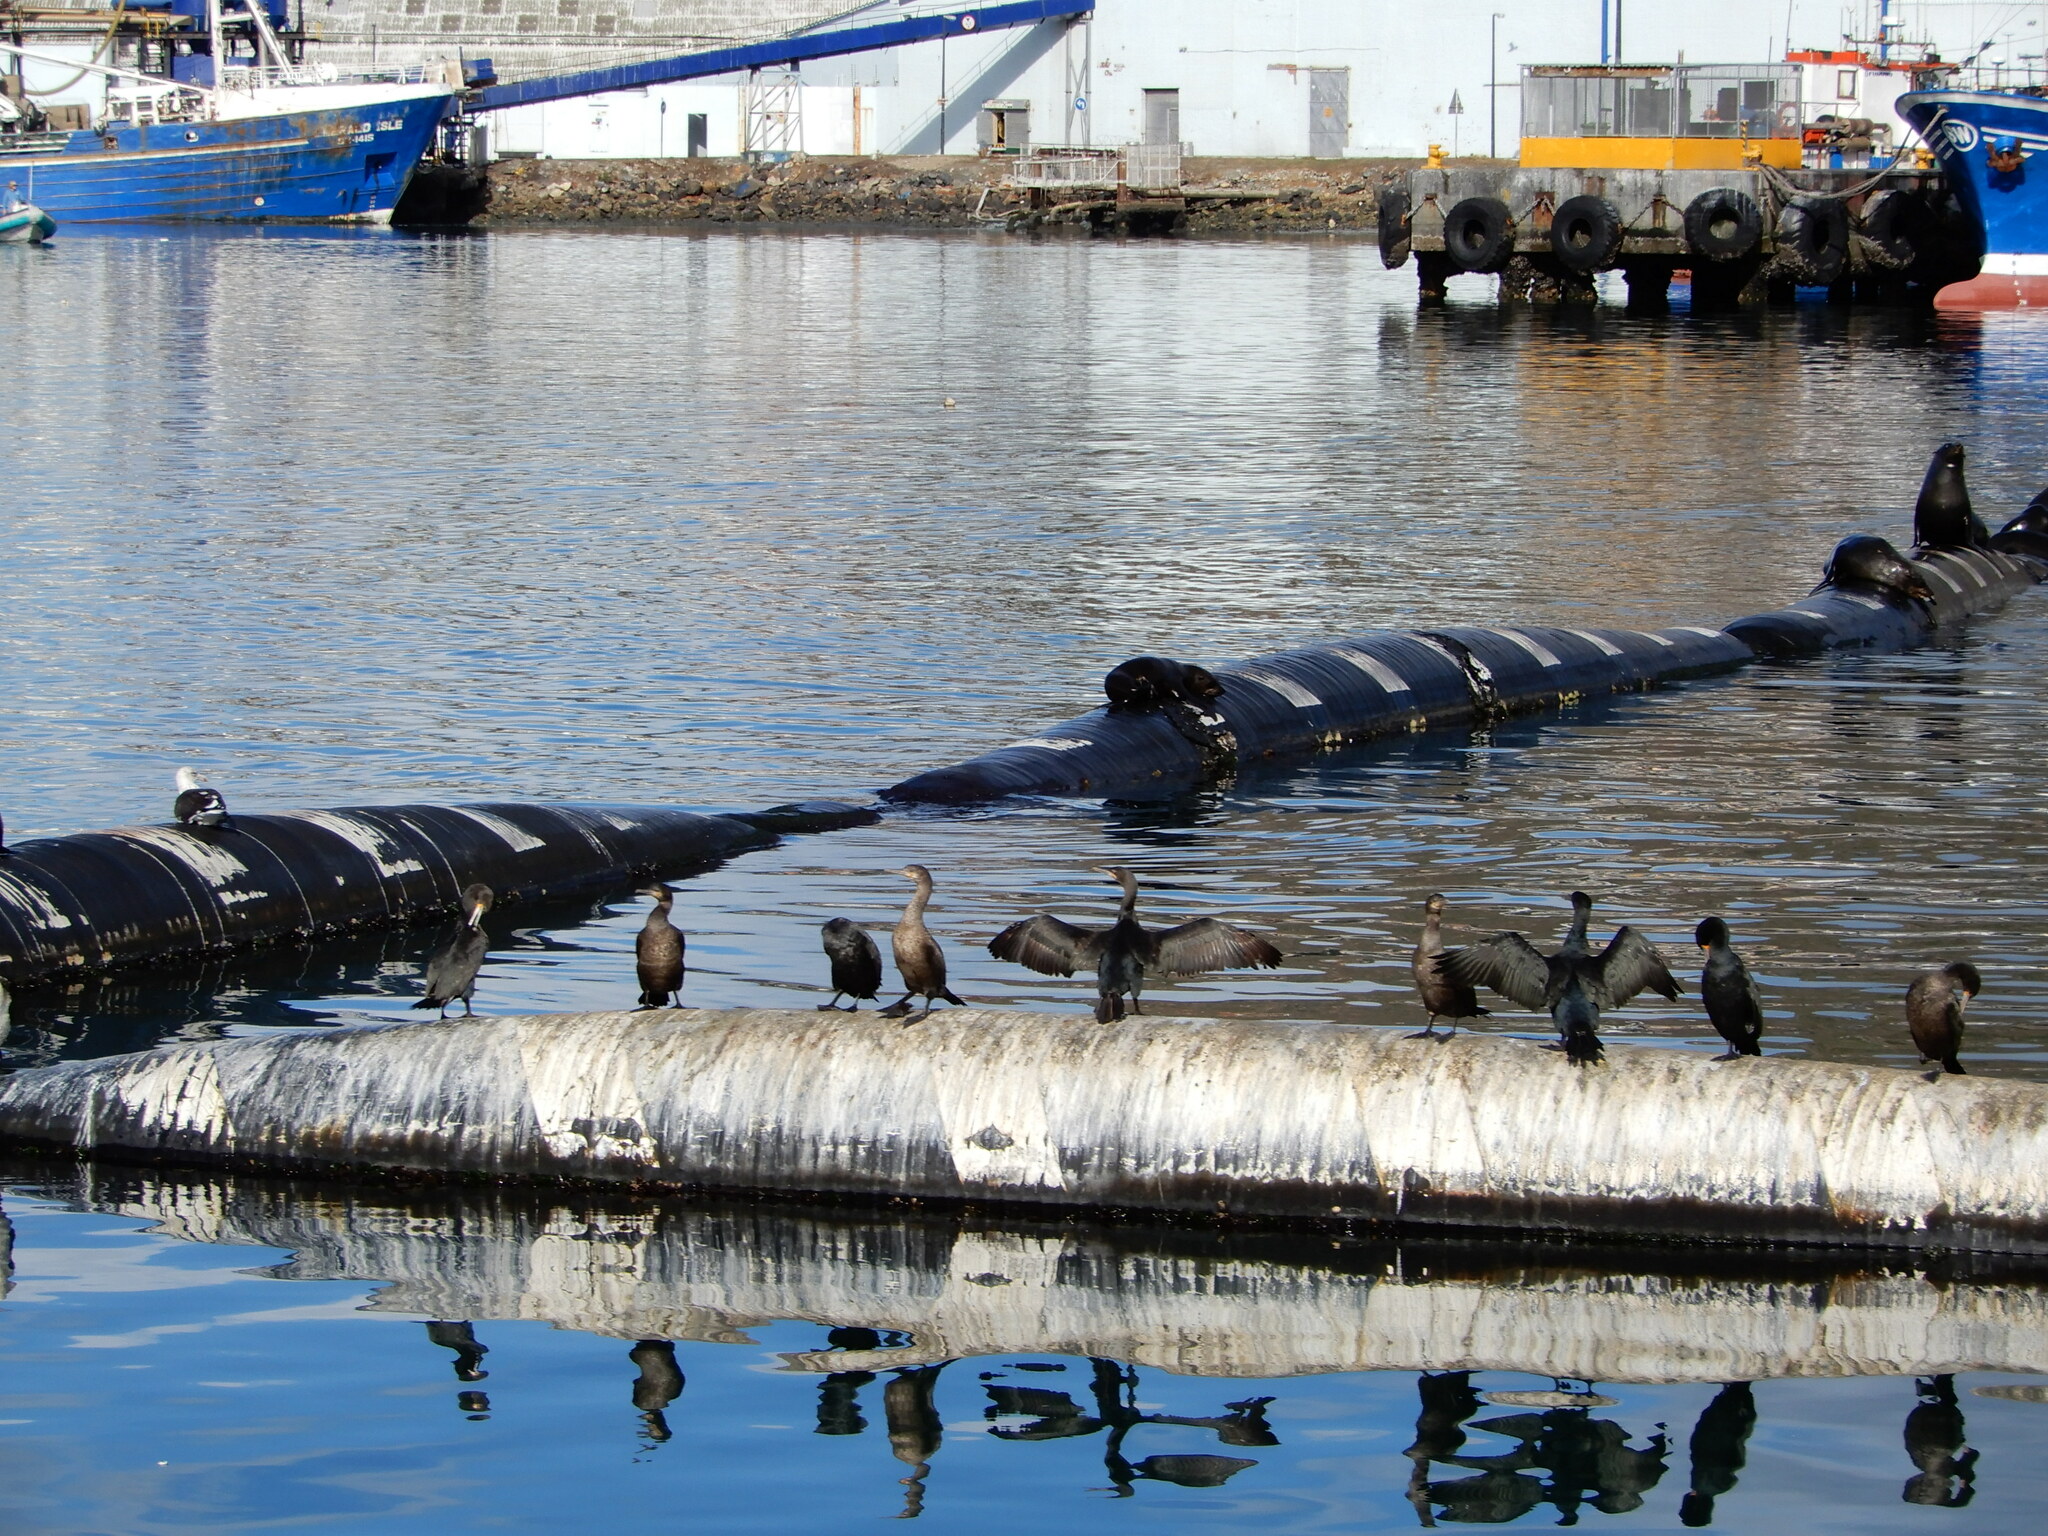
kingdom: Animalia
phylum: Chordata
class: Aves
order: Suliformes
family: Phalacrocoracidae
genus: Phalacrocorax
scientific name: Phalacrocorax capensis
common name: Cape cormorant
